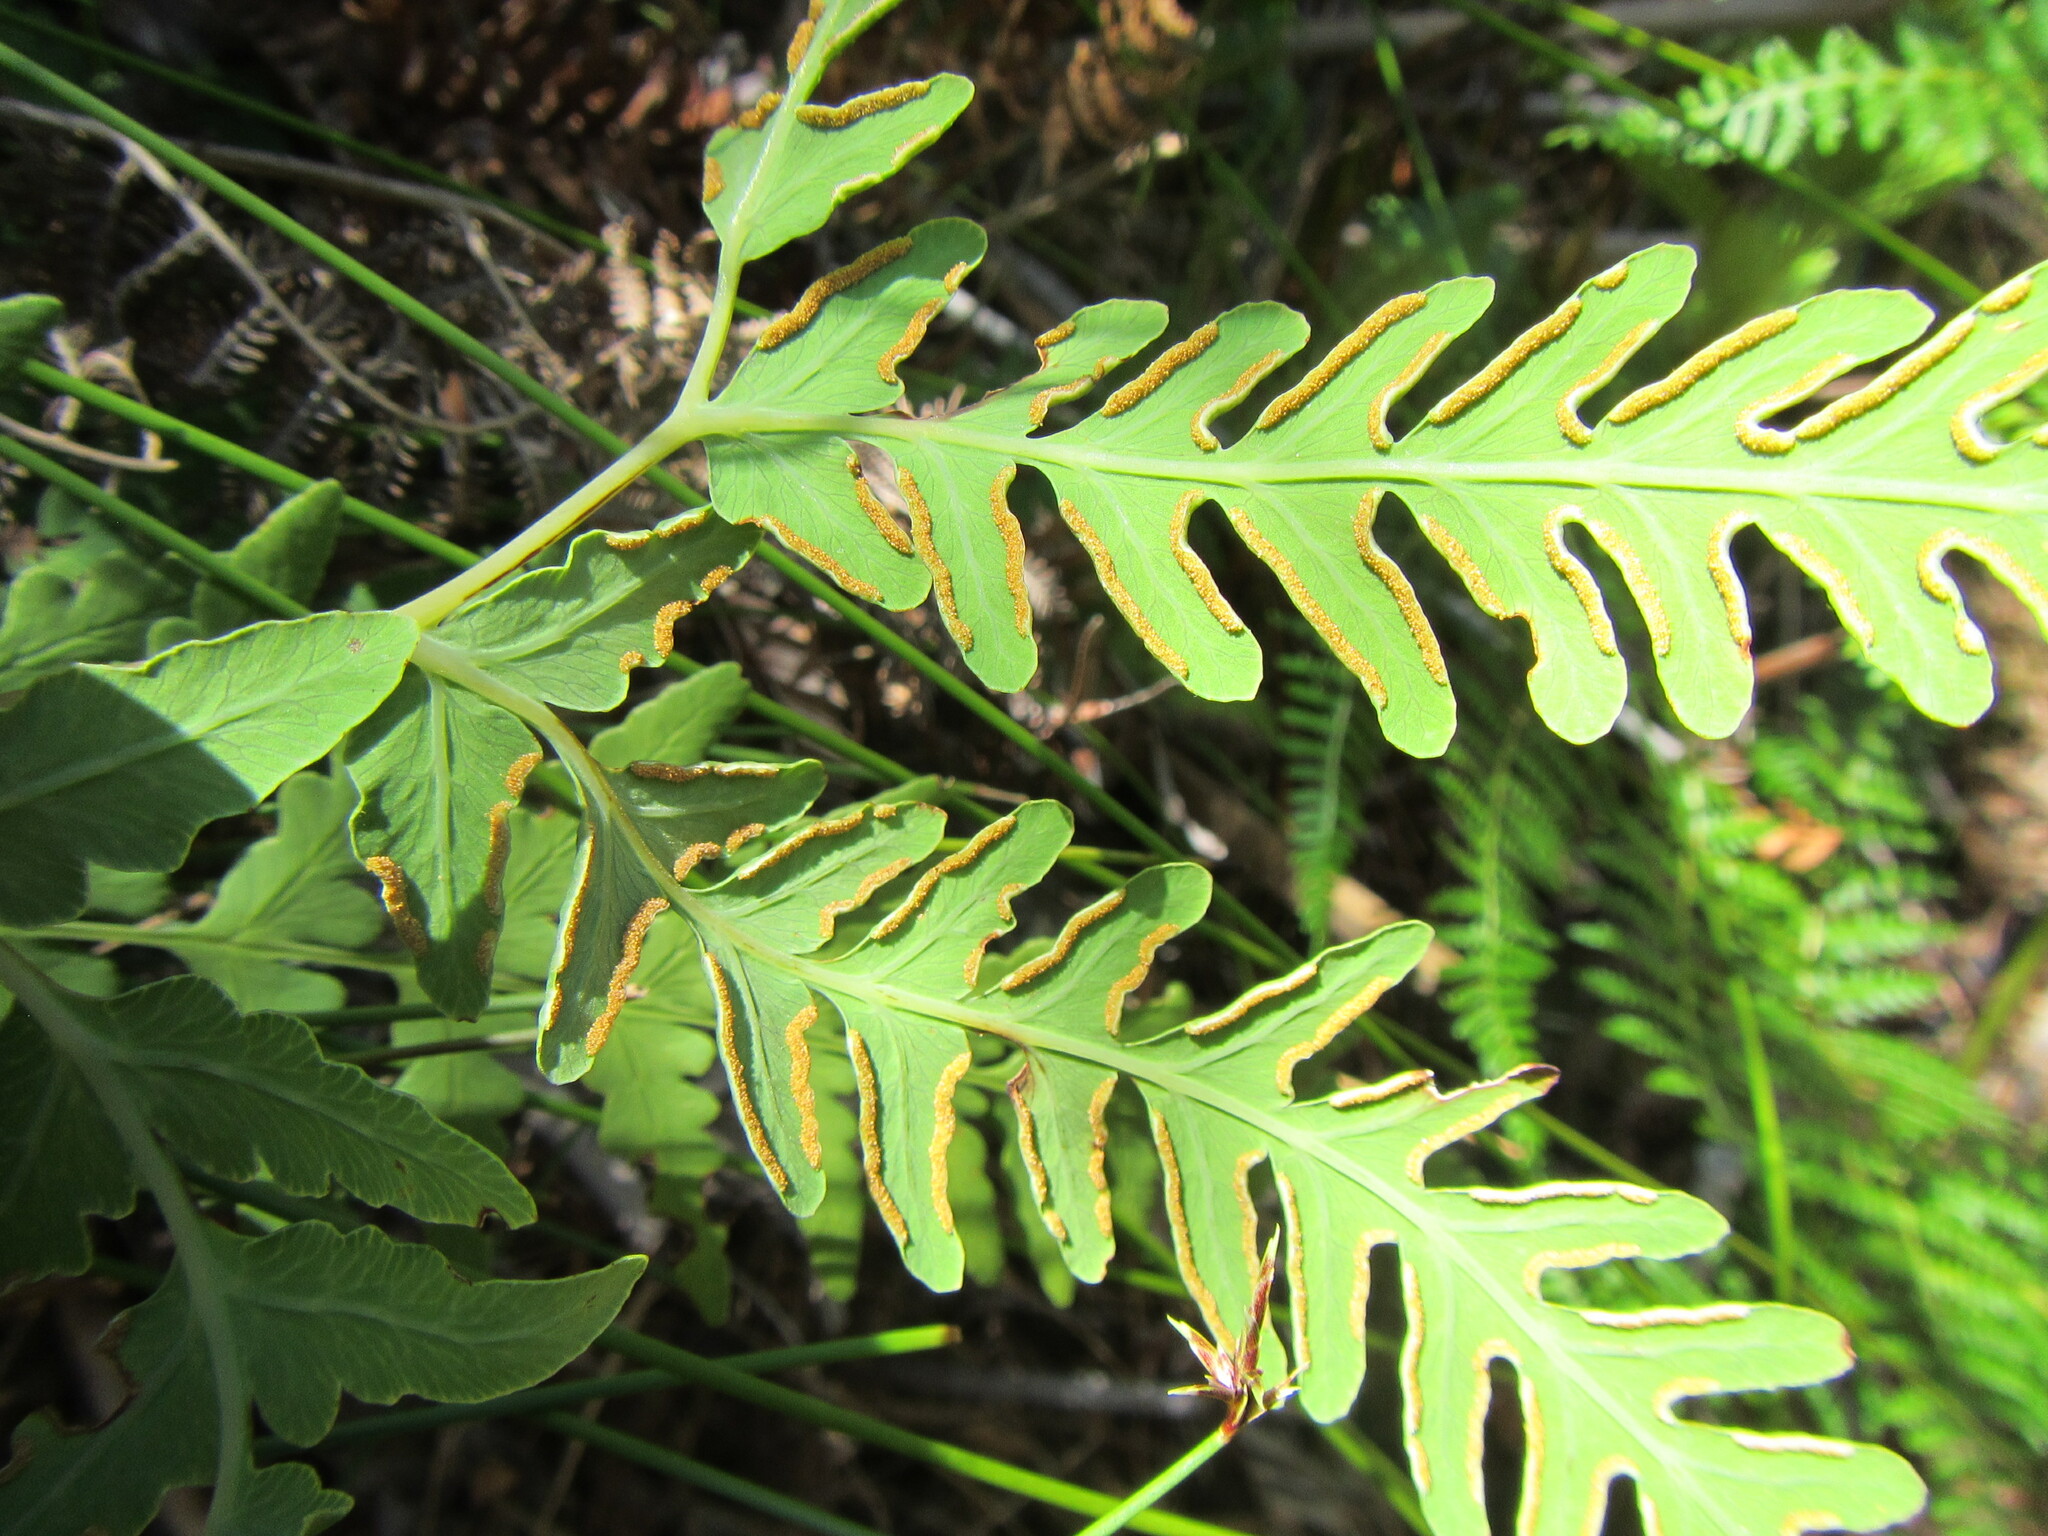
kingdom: Plantae
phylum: Tracheophyta
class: Polypodiopsida
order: Polypodiales
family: Dennstaedtiaceae
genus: Histiopteris
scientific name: Histiopteris incisa
